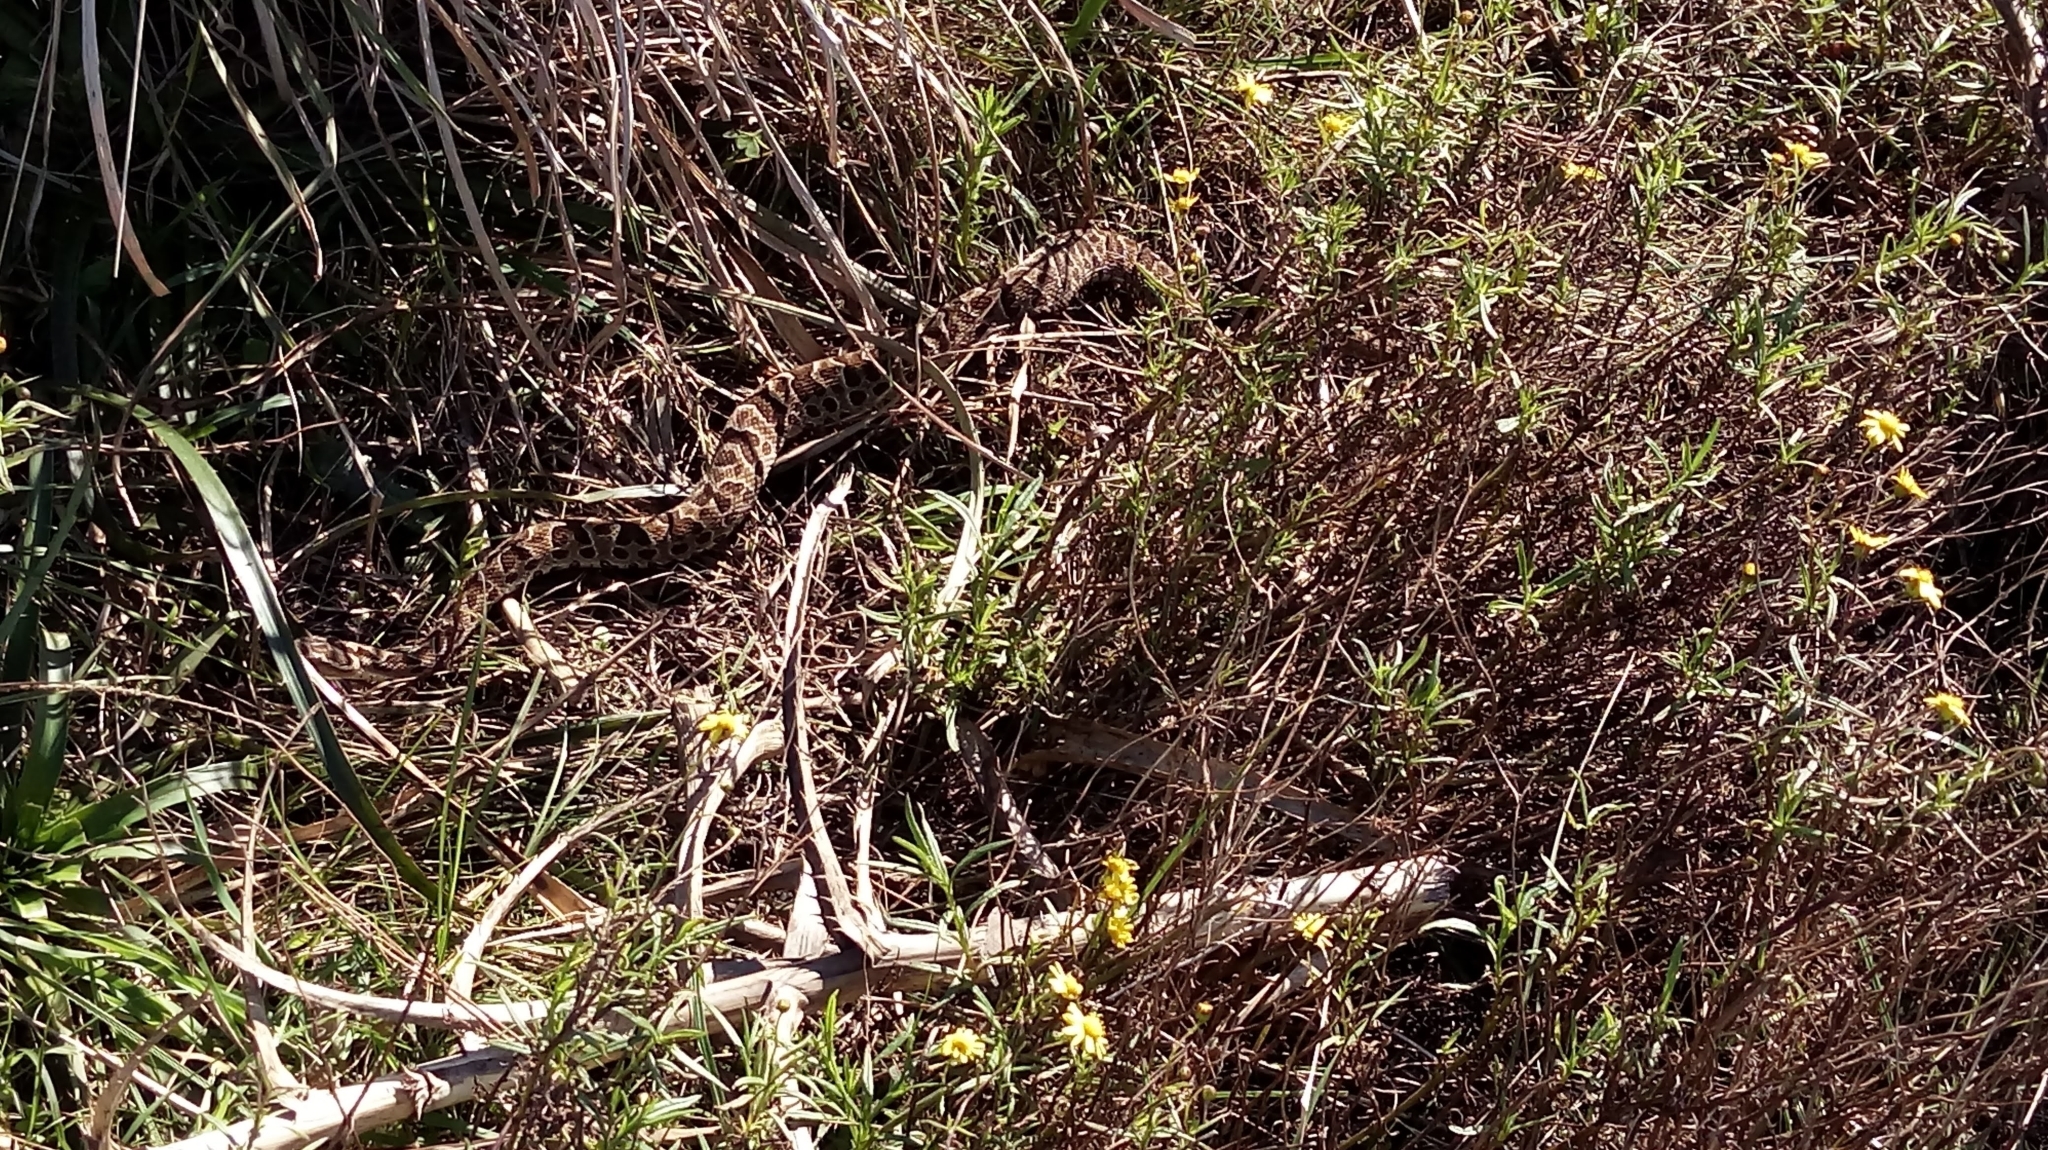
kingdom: Animalia
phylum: Chordata
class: Squamata
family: Viperidae
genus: Bothrops
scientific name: Bothrops alternatus
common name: Urutu
